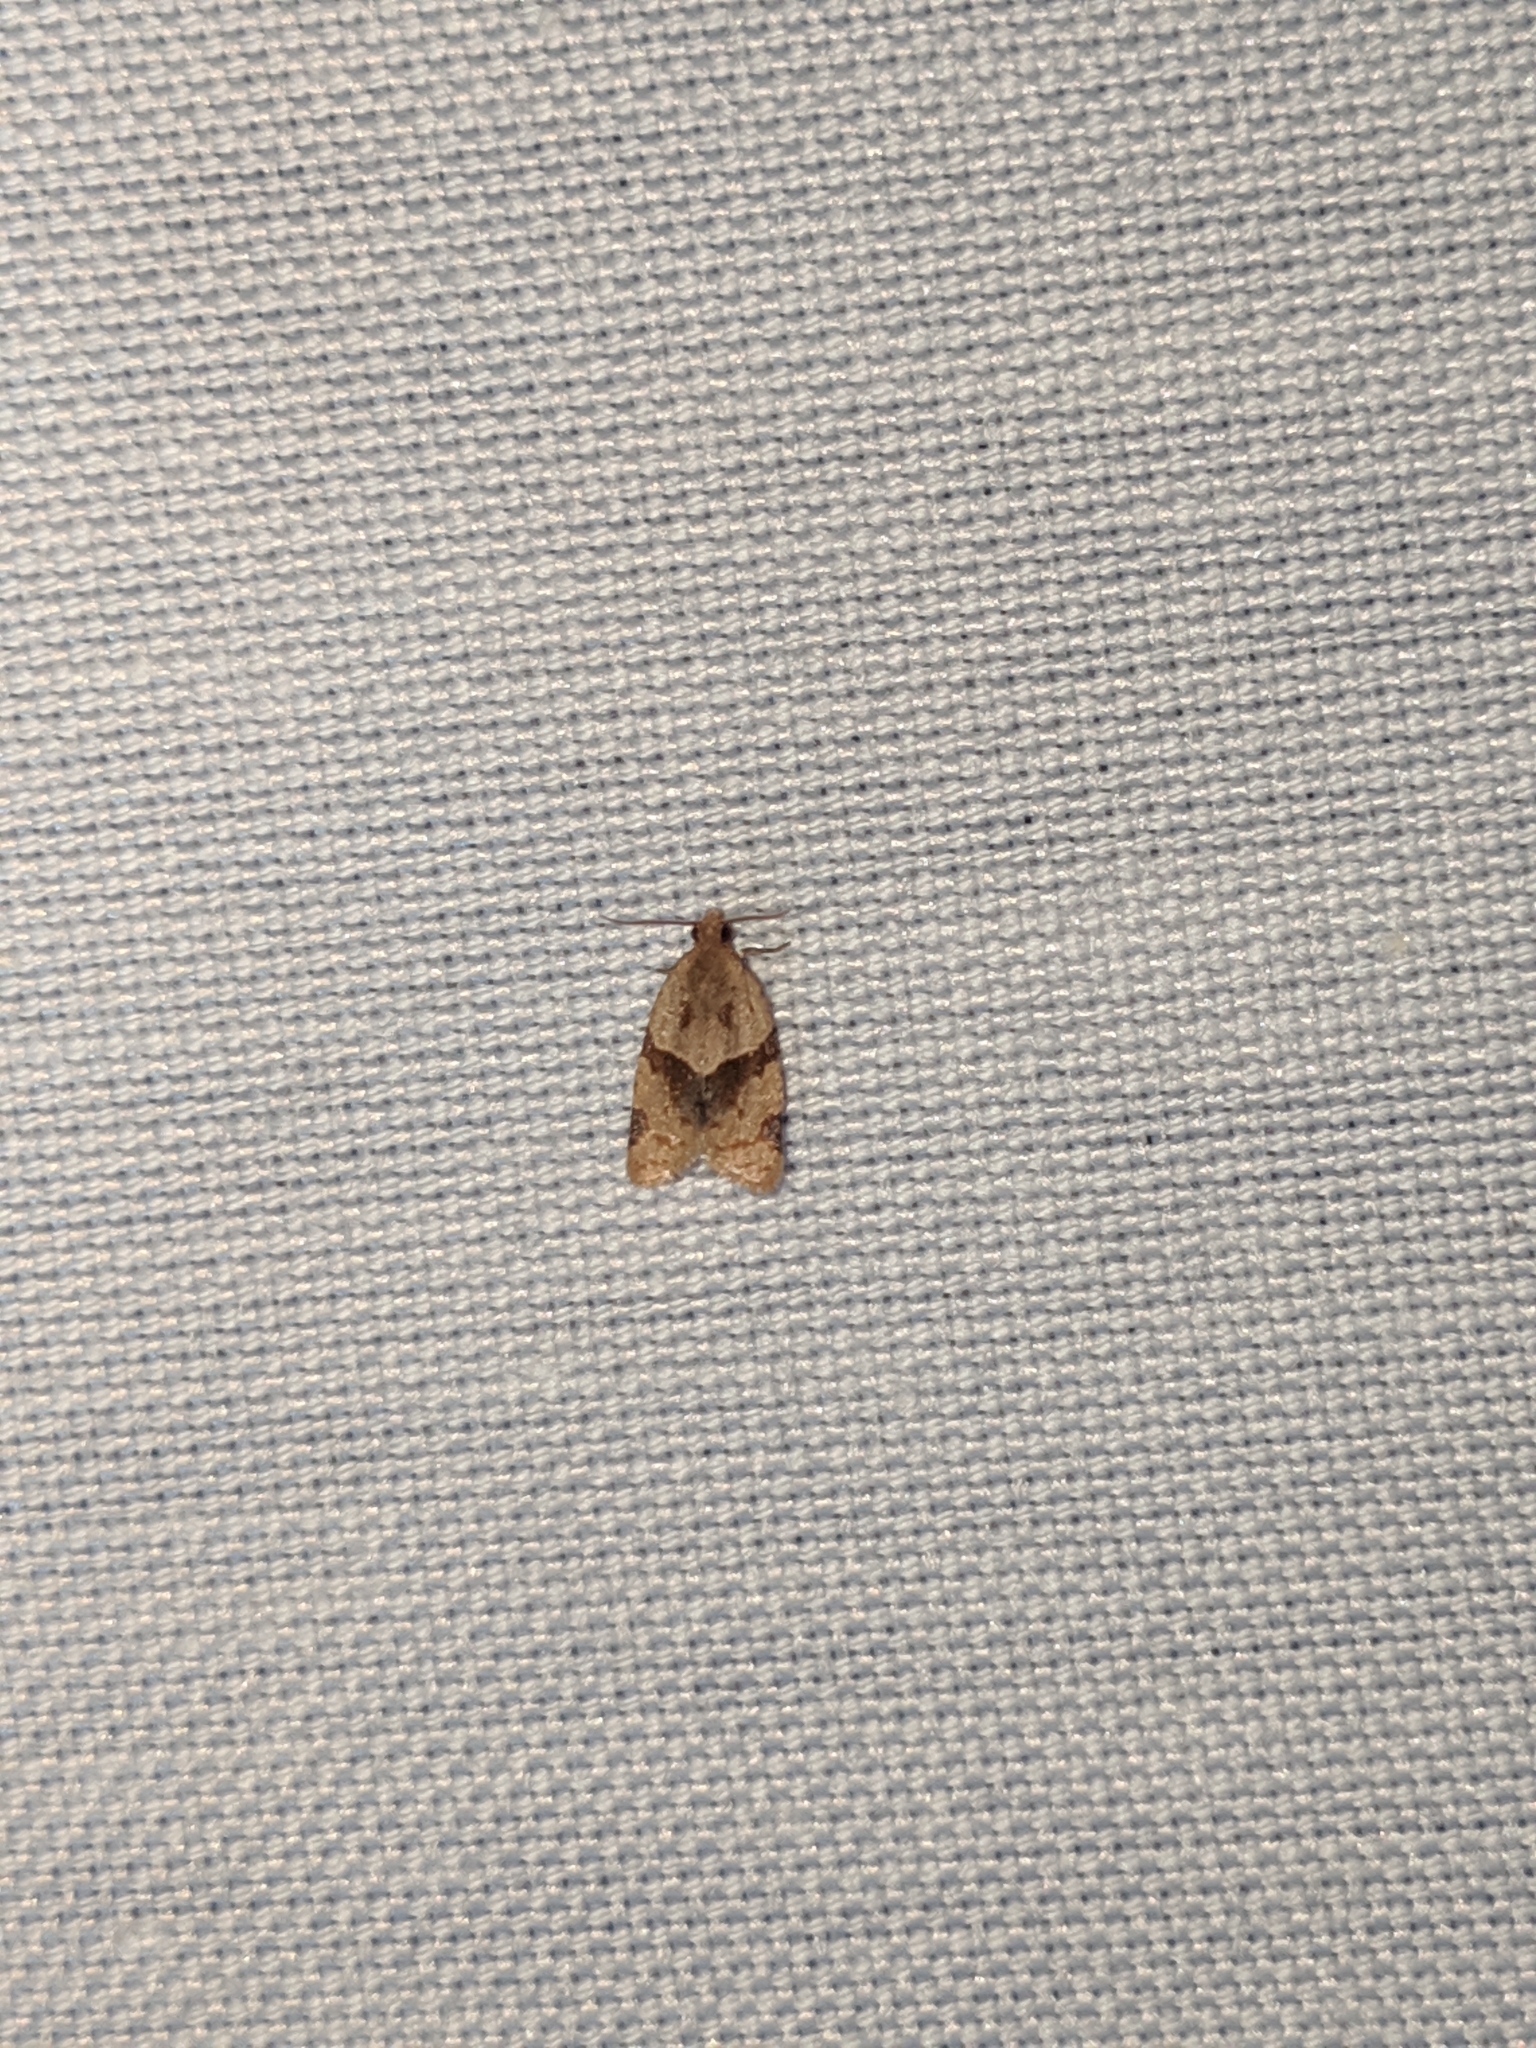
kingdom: Animalia
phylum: Arthropoda
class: Insecta
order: Lepidoptera
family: Tortricidae
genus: Clepsis
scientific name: Clepsis peritana
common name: Garden tortrix
